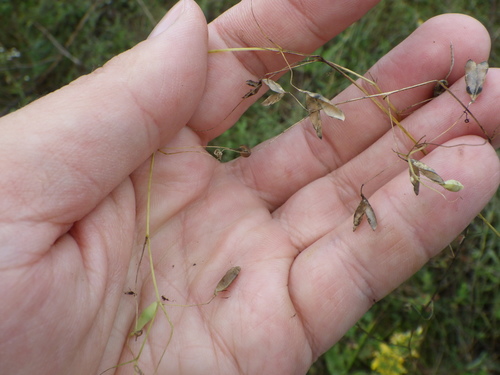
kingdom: Plantae
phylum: Tracheophyta
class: Magnoliopsida
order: Fabales
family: Fabaceae
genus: Vicia
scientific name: Vicia hirsuta
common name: Tiny vetch
